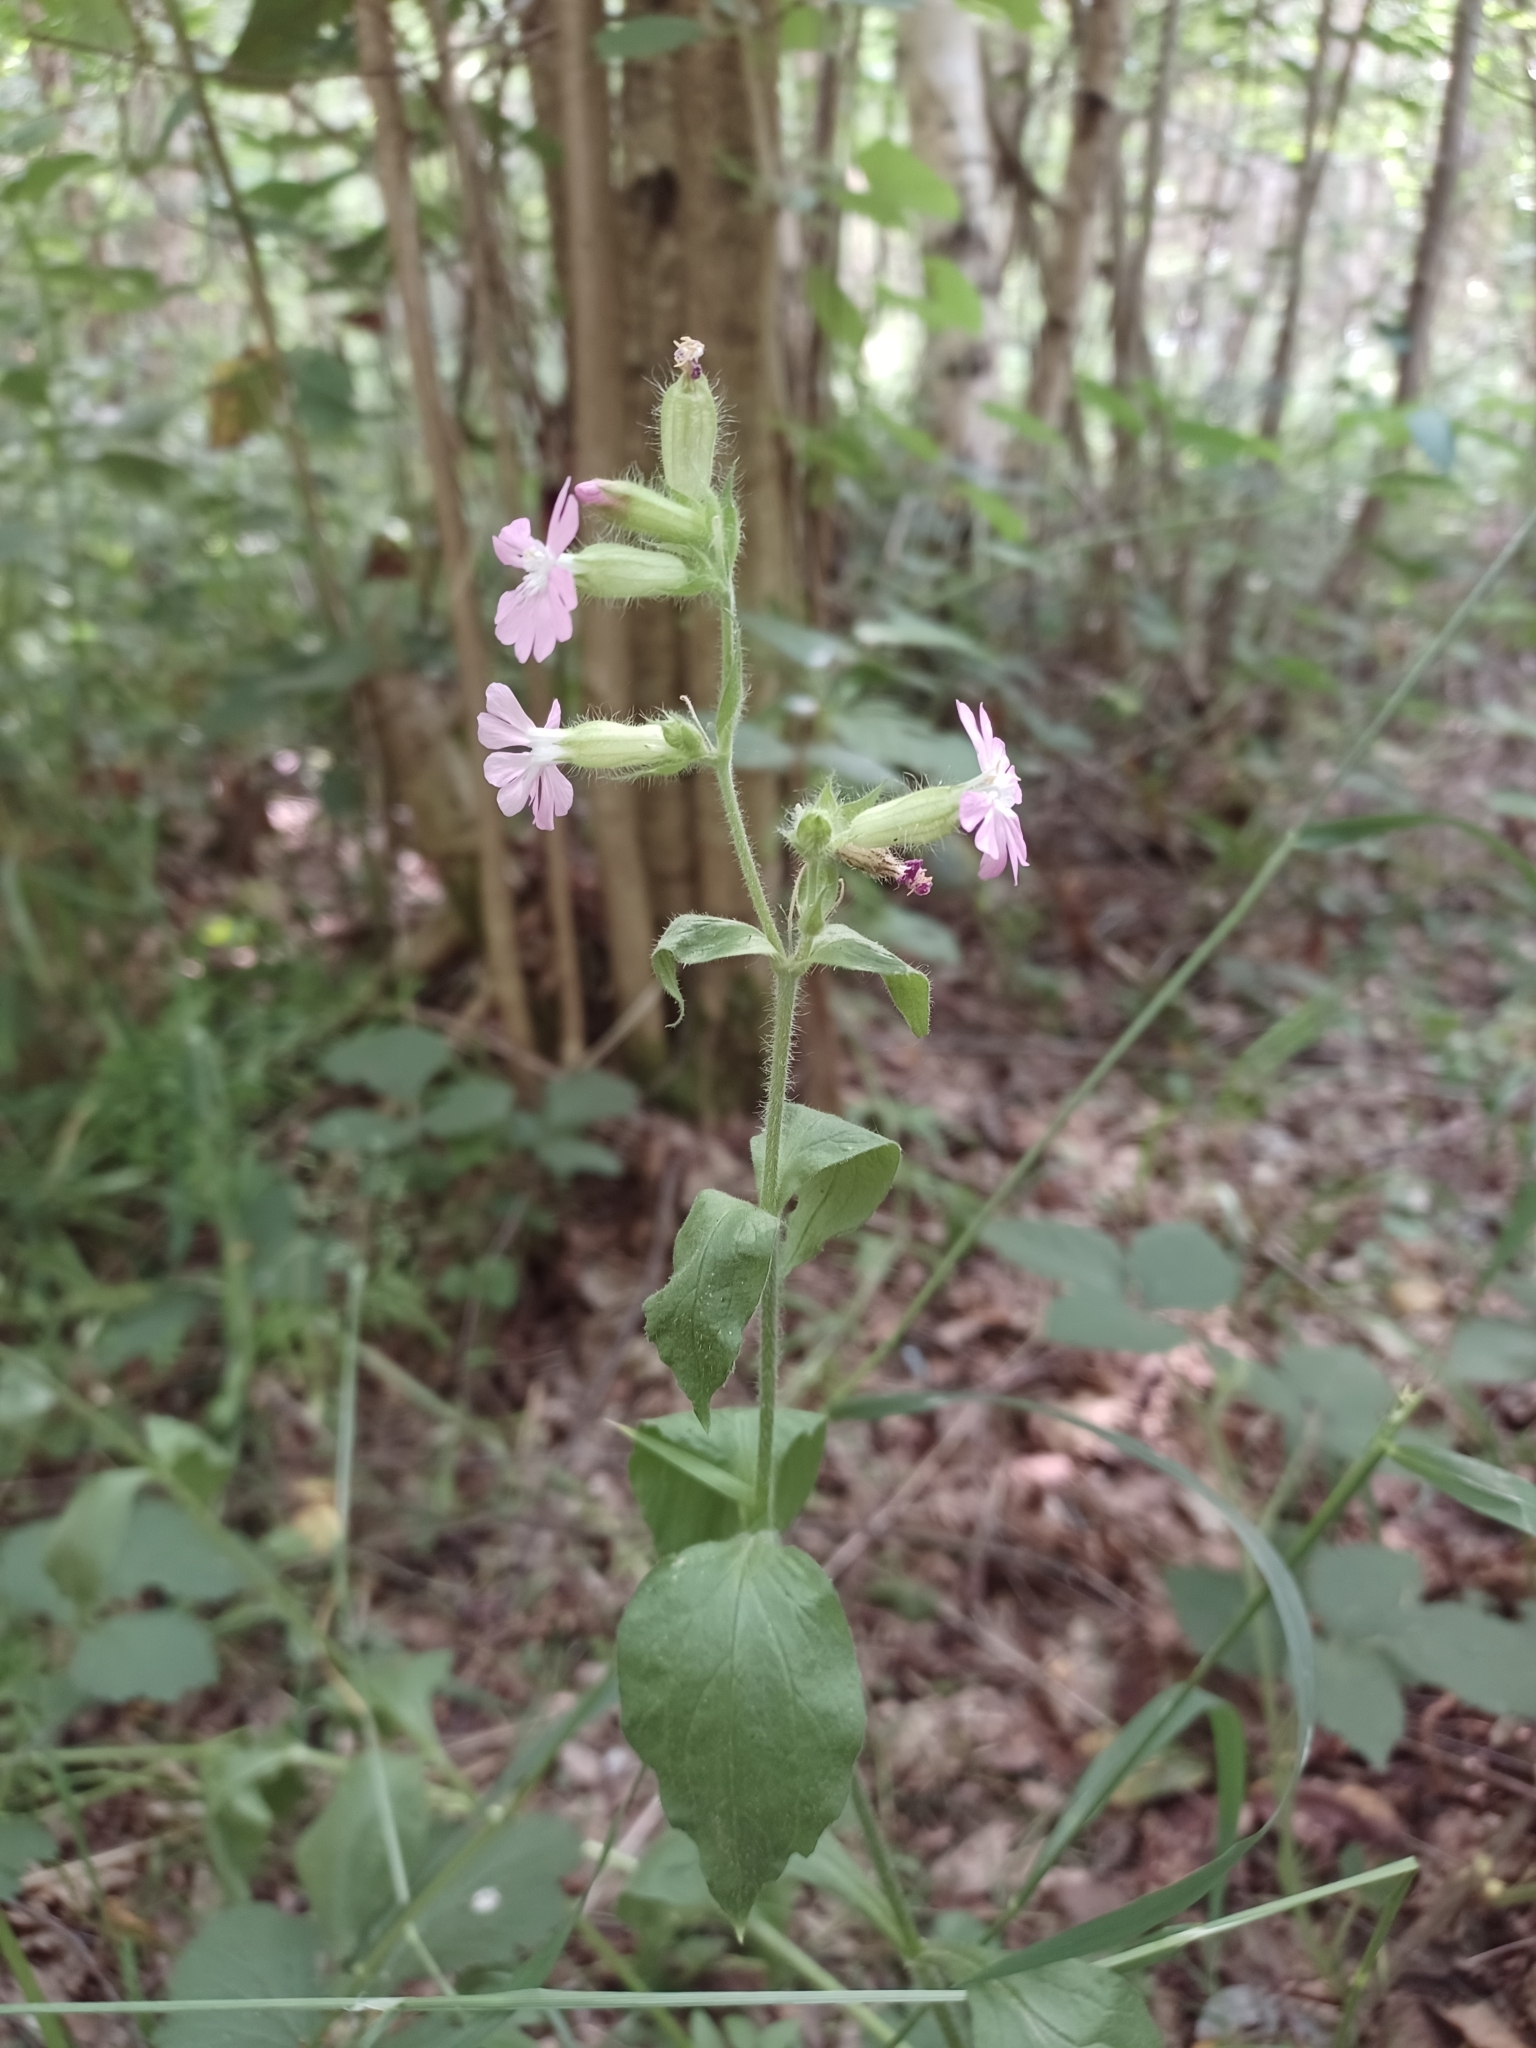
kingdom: Plantae
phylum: Tracheophyta
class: Magnoliopsida
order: Caryophyllales
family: Caryophyllaceae
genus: Silene
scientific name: Silene dioica
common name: Red campion
